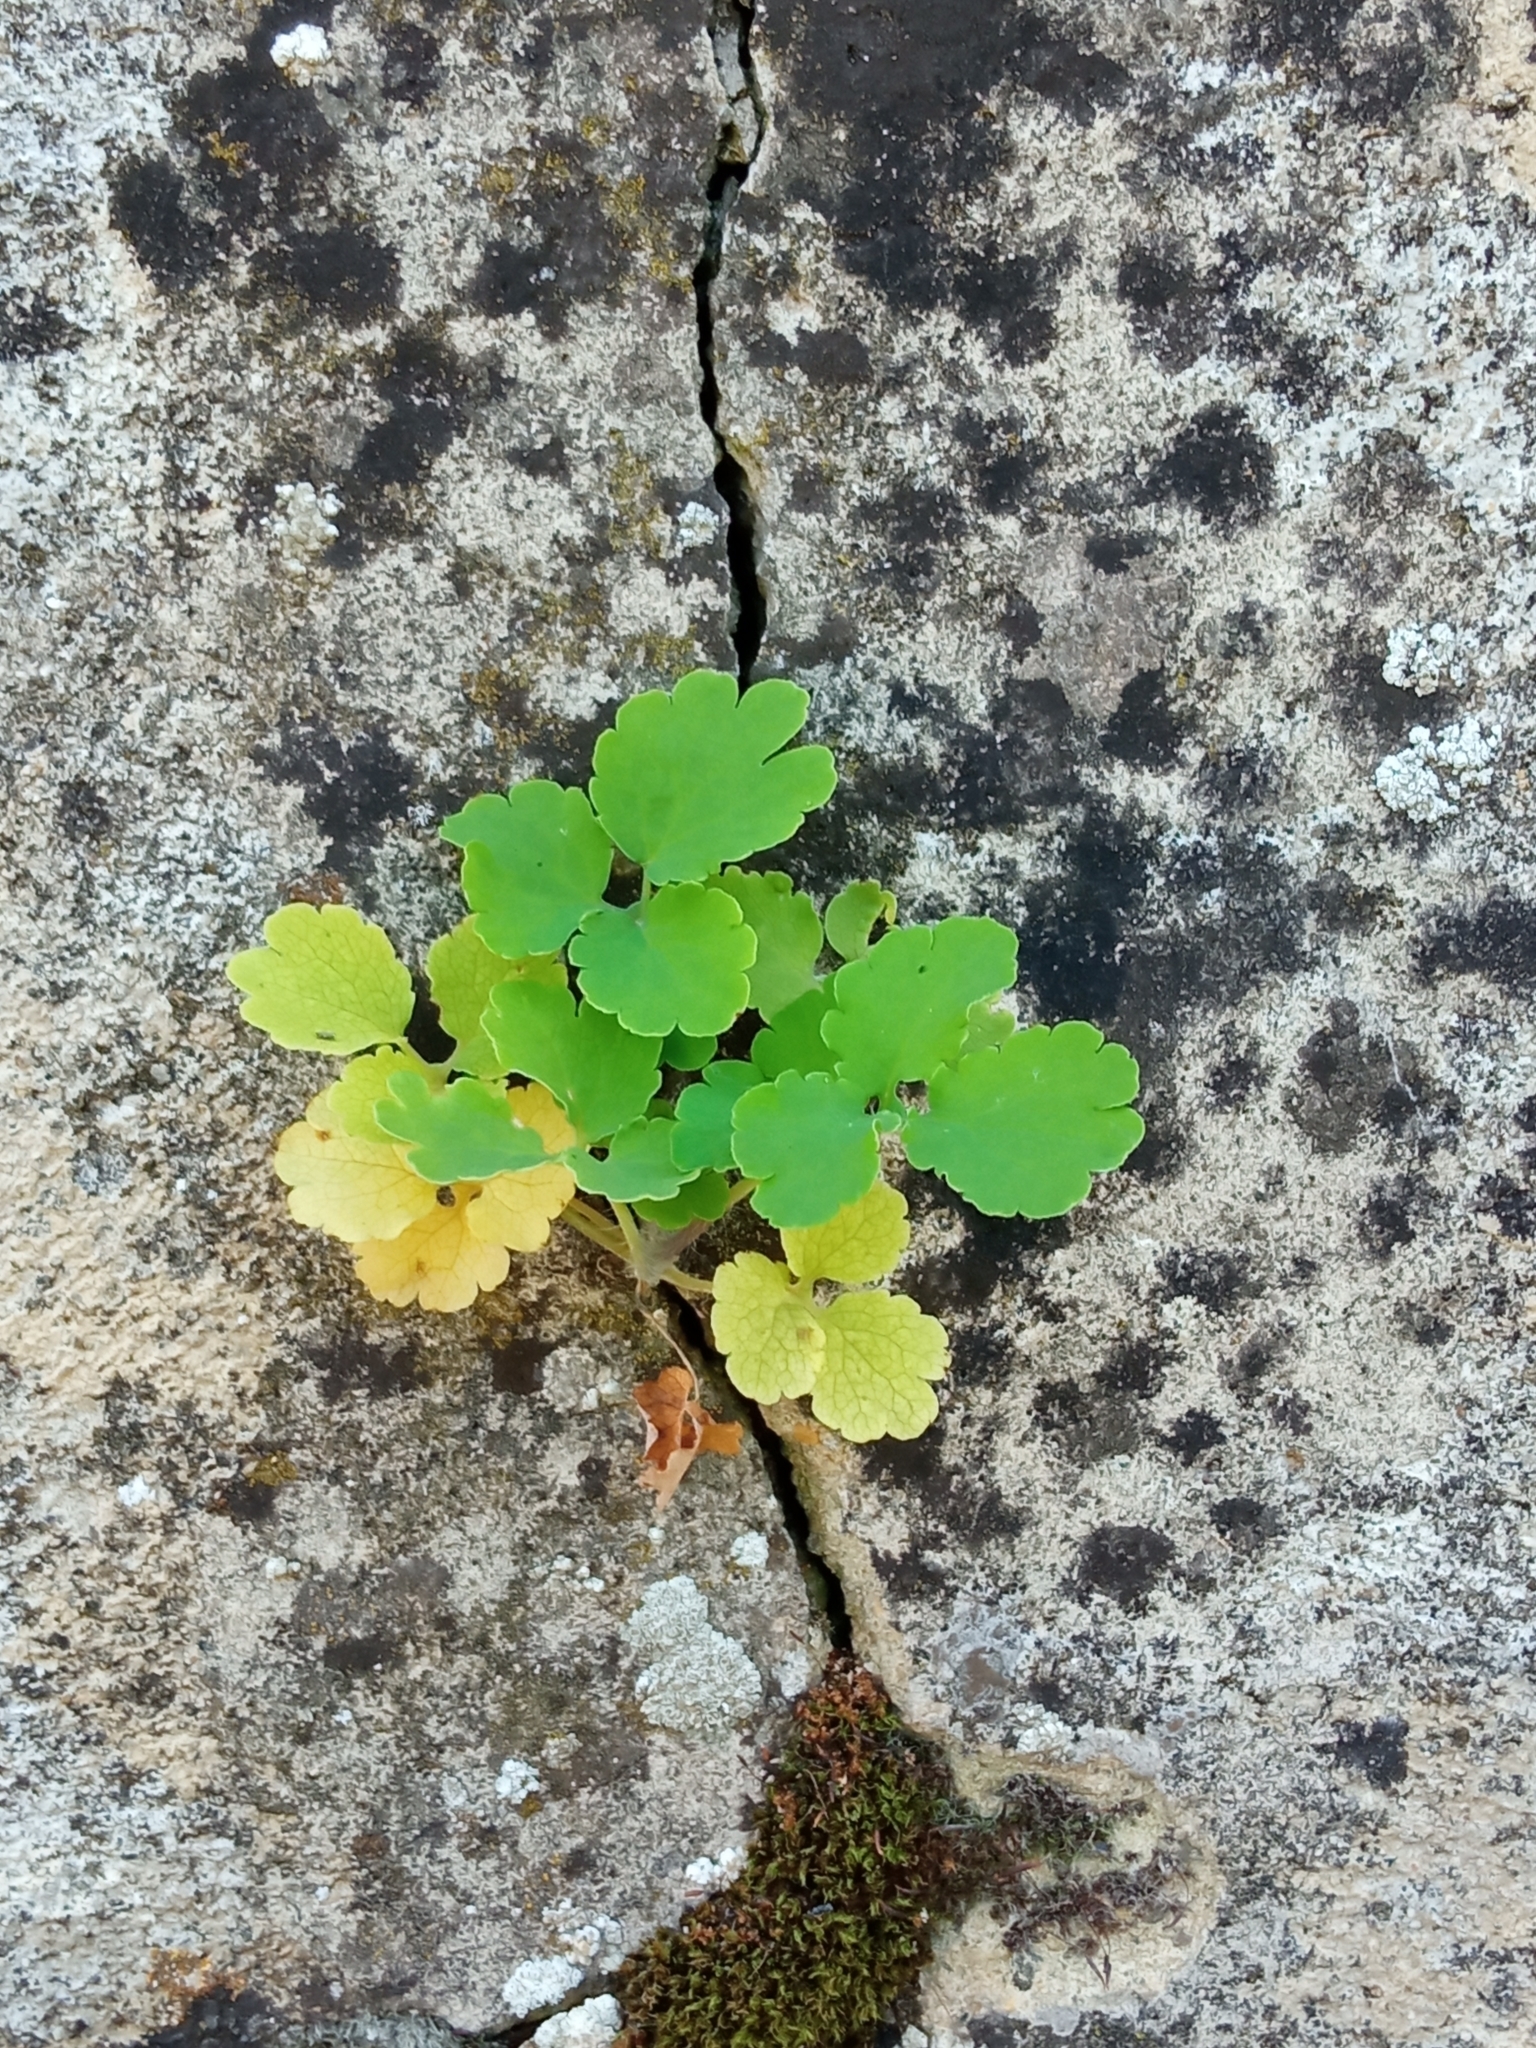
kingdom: Plantae
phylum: Tracheophyta
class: Magnoliopsida
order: Ranunculales
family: Papaveraceae
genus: Chelidonium
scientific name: Chelidonium majus
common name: Greater celandine
